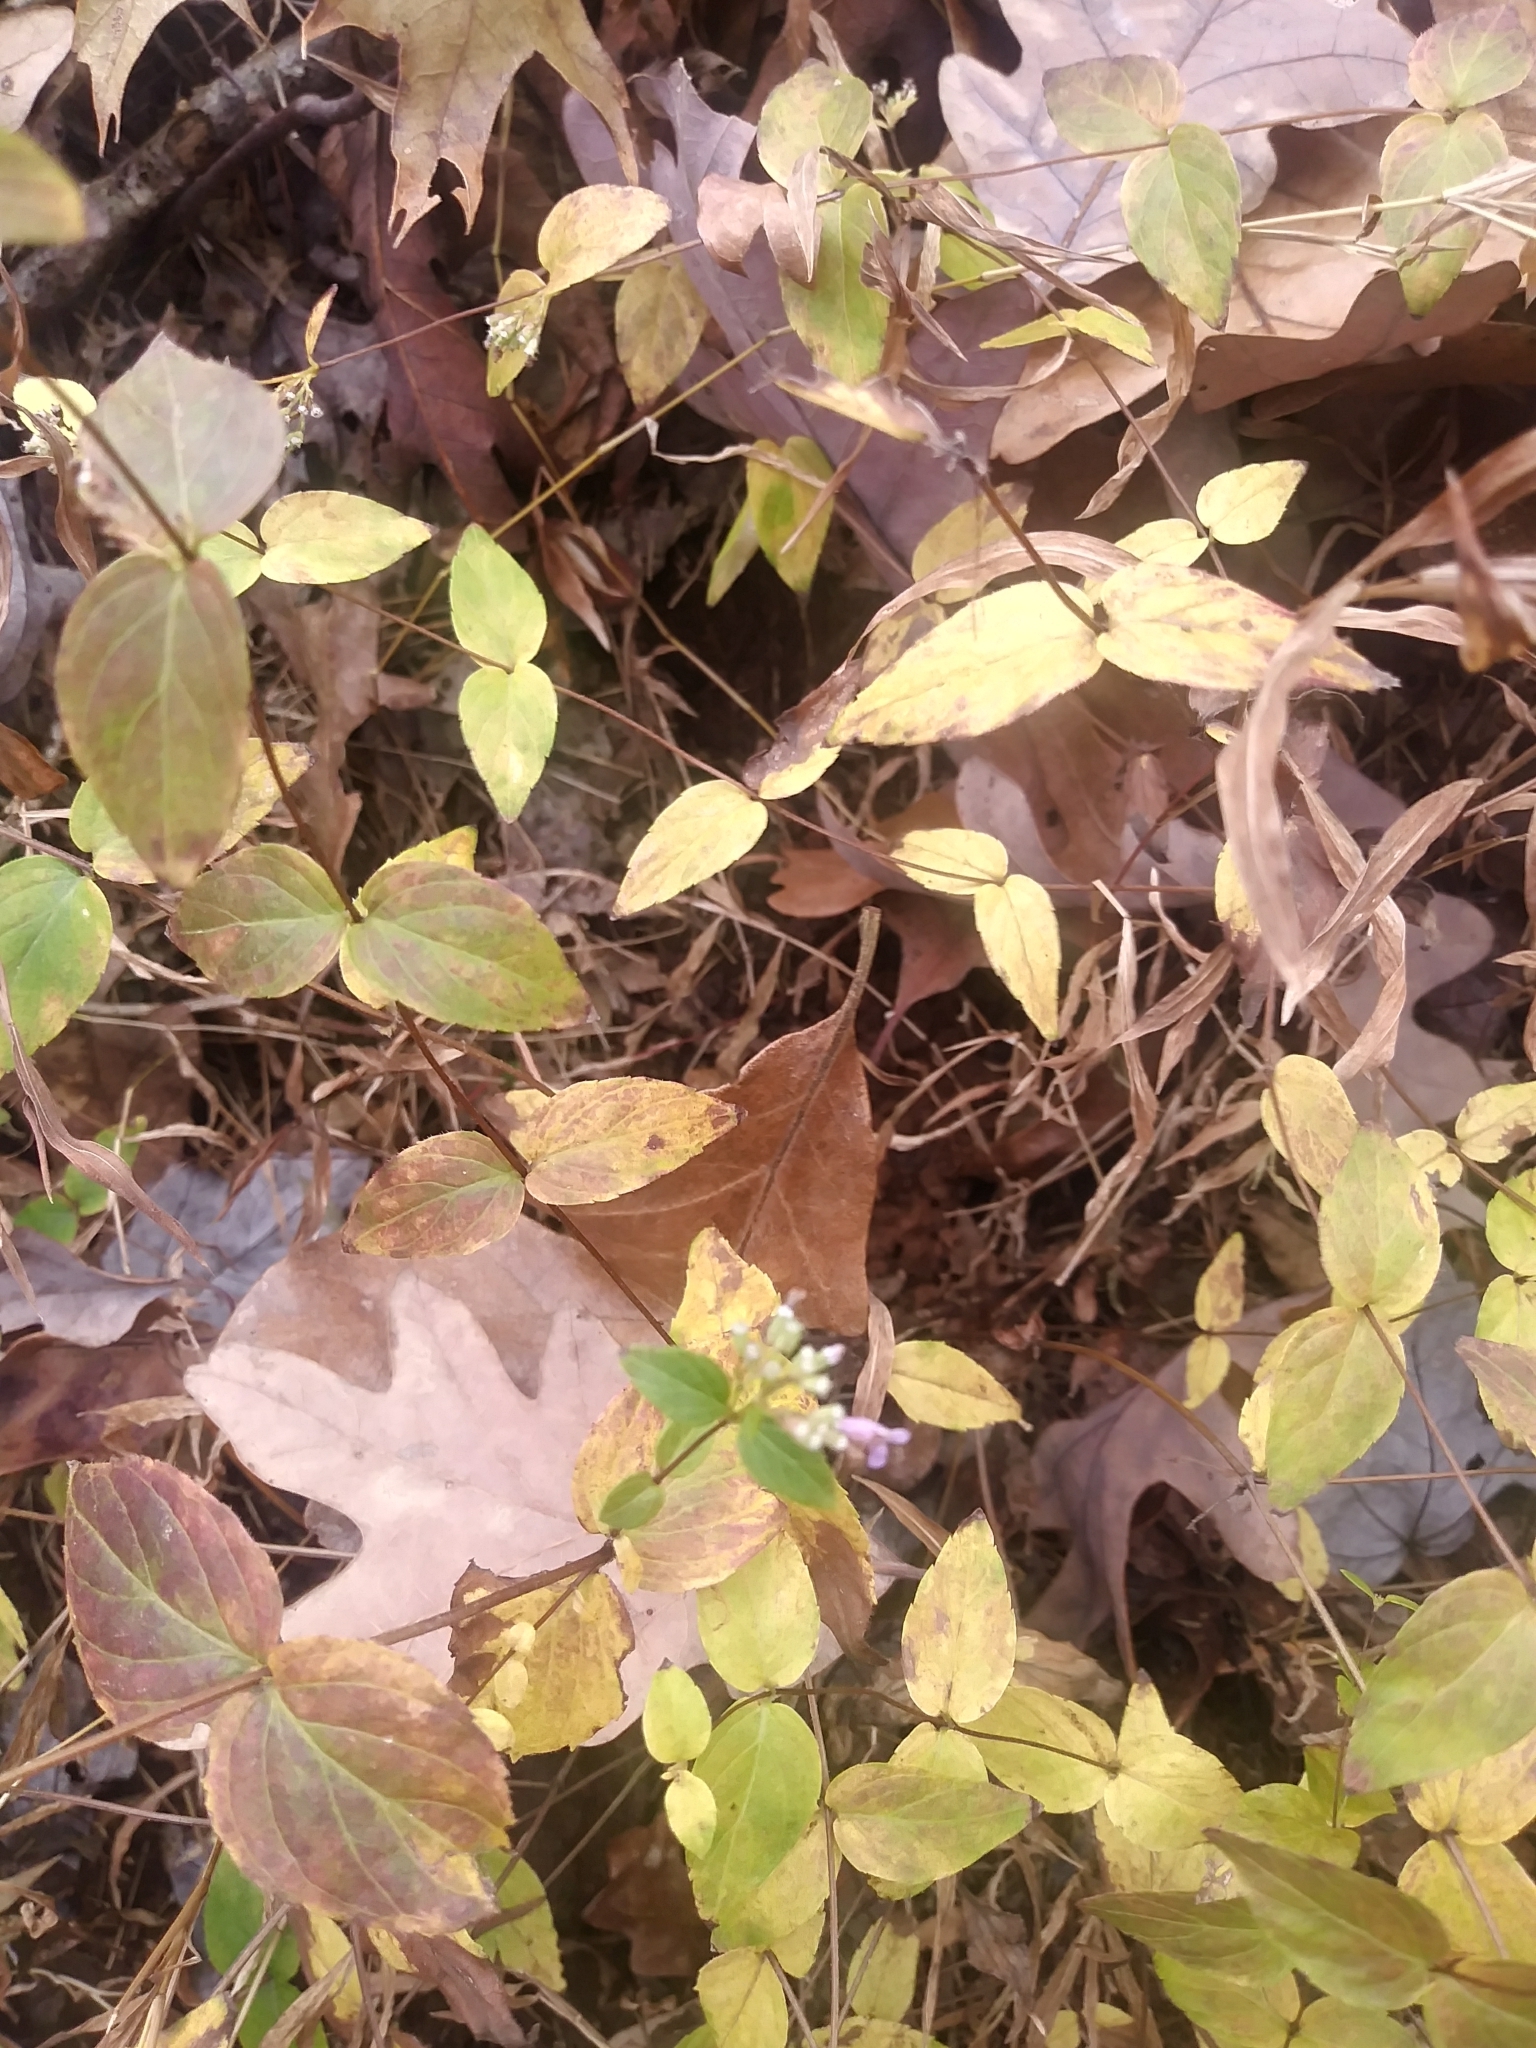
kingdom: Plantae
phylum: Tracheophyta
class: Magnoliopsida
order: Lamiales
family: Lamiaceae
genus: Cunila
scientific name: Cunila origanoides
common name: American dittany
